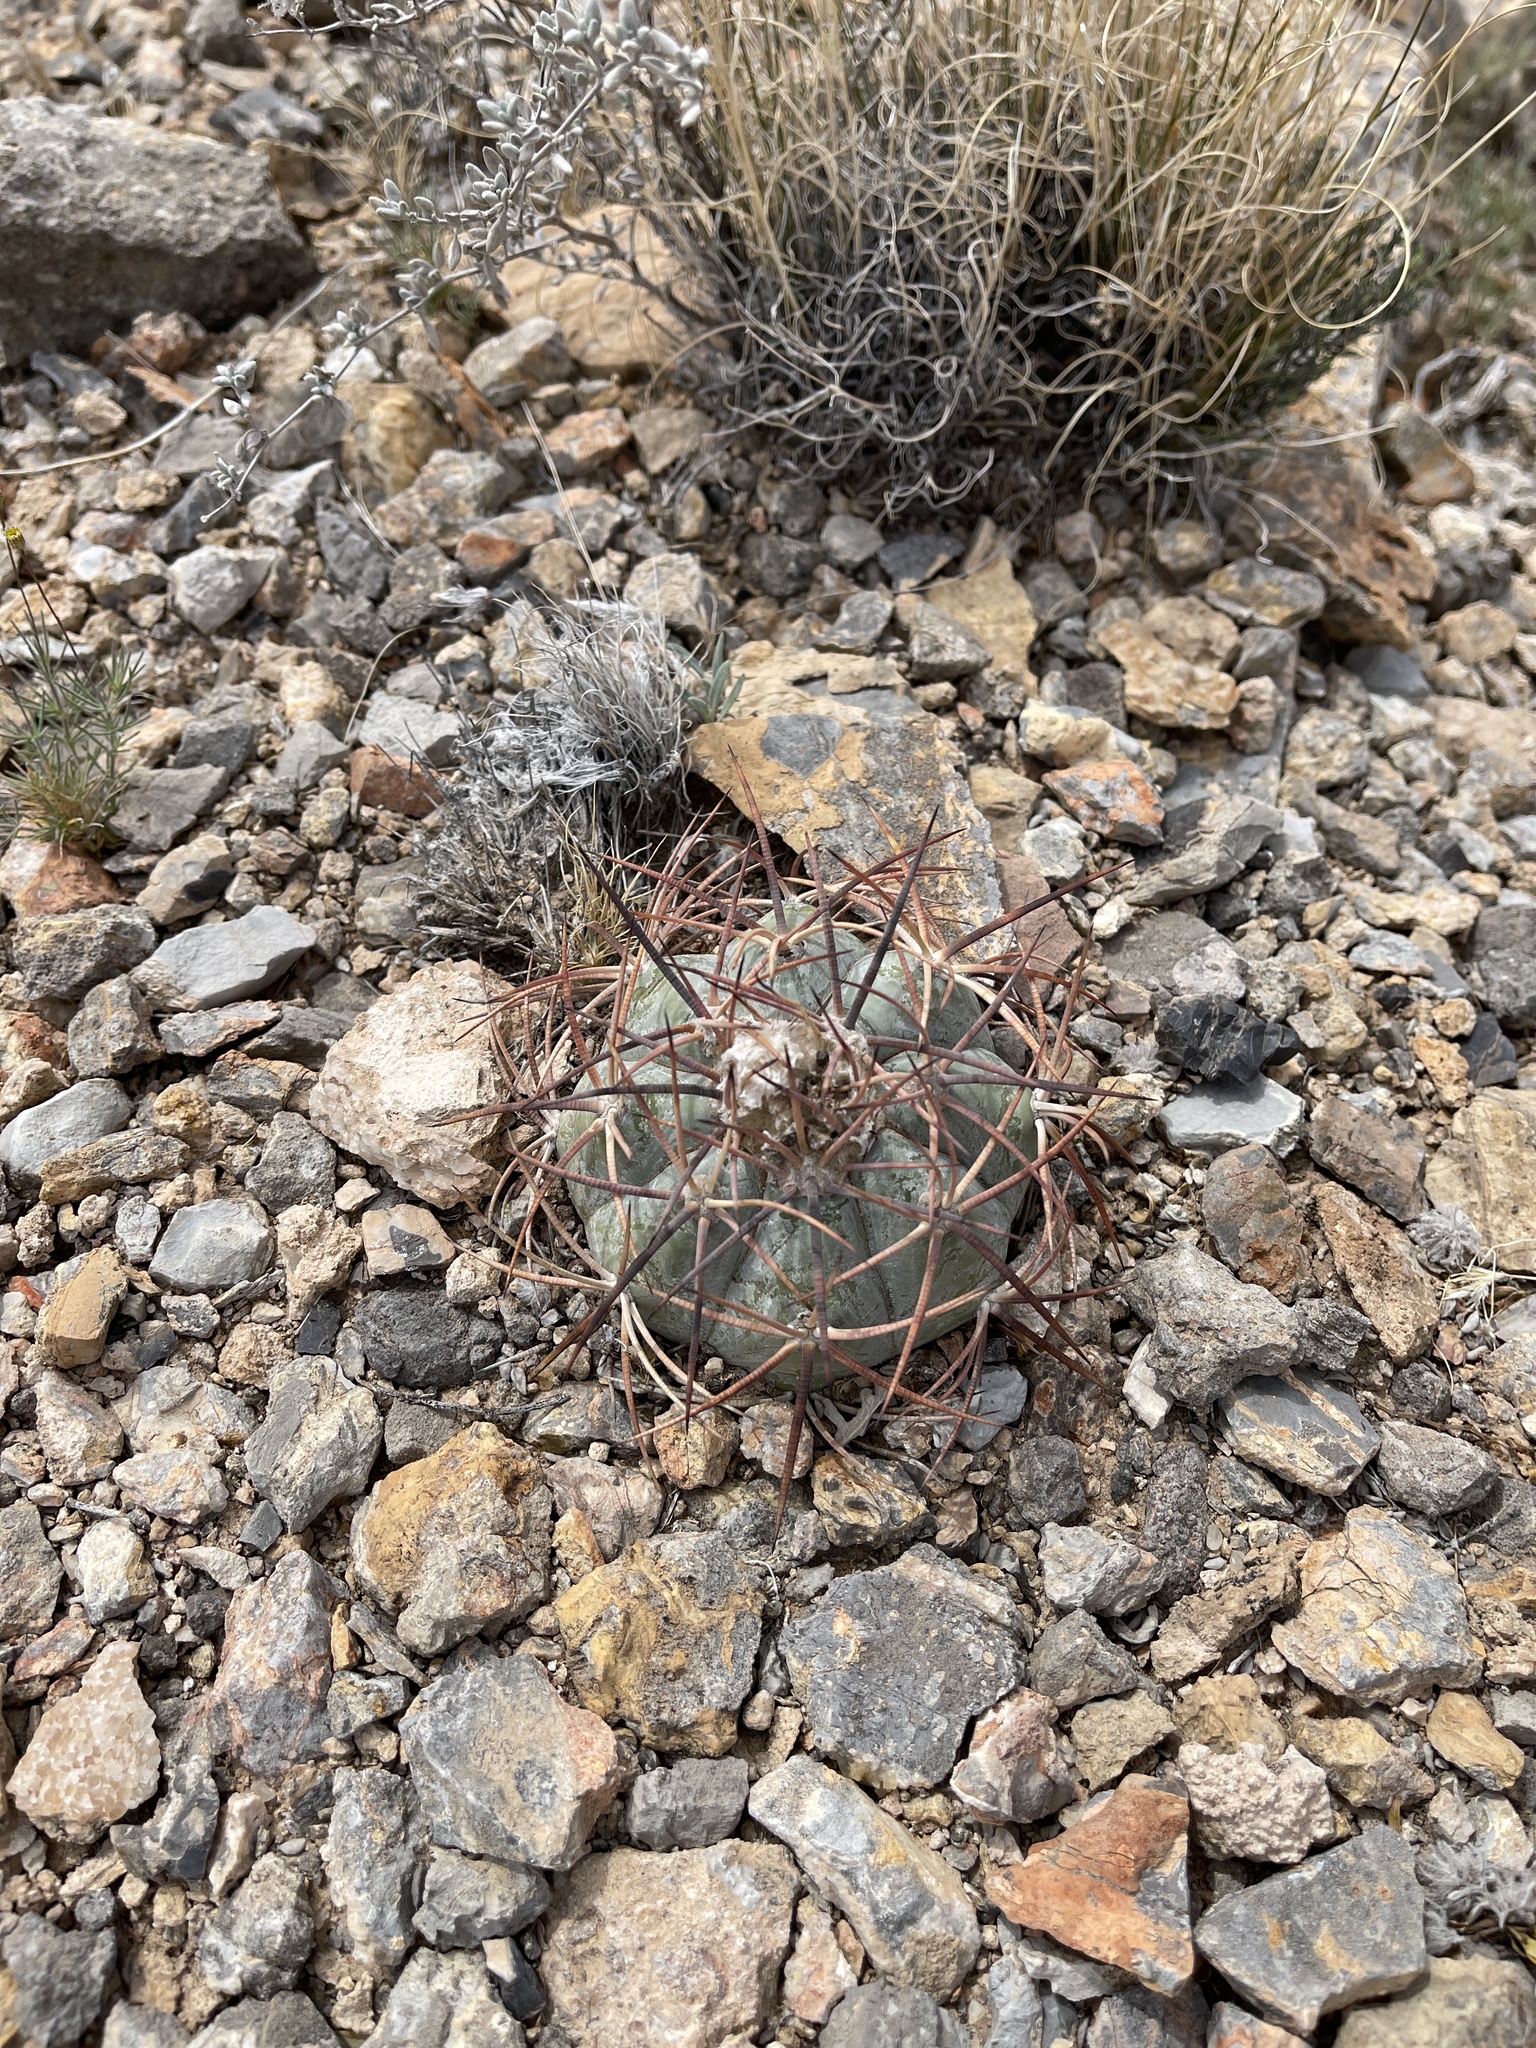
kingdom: Plantae
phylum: Tracheophyta
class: Magnoliopsida
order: Caryophyllales
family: Cactaceae
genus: Echinocactus
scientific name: Echinocactus horizonthalonius
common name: Devilshead
